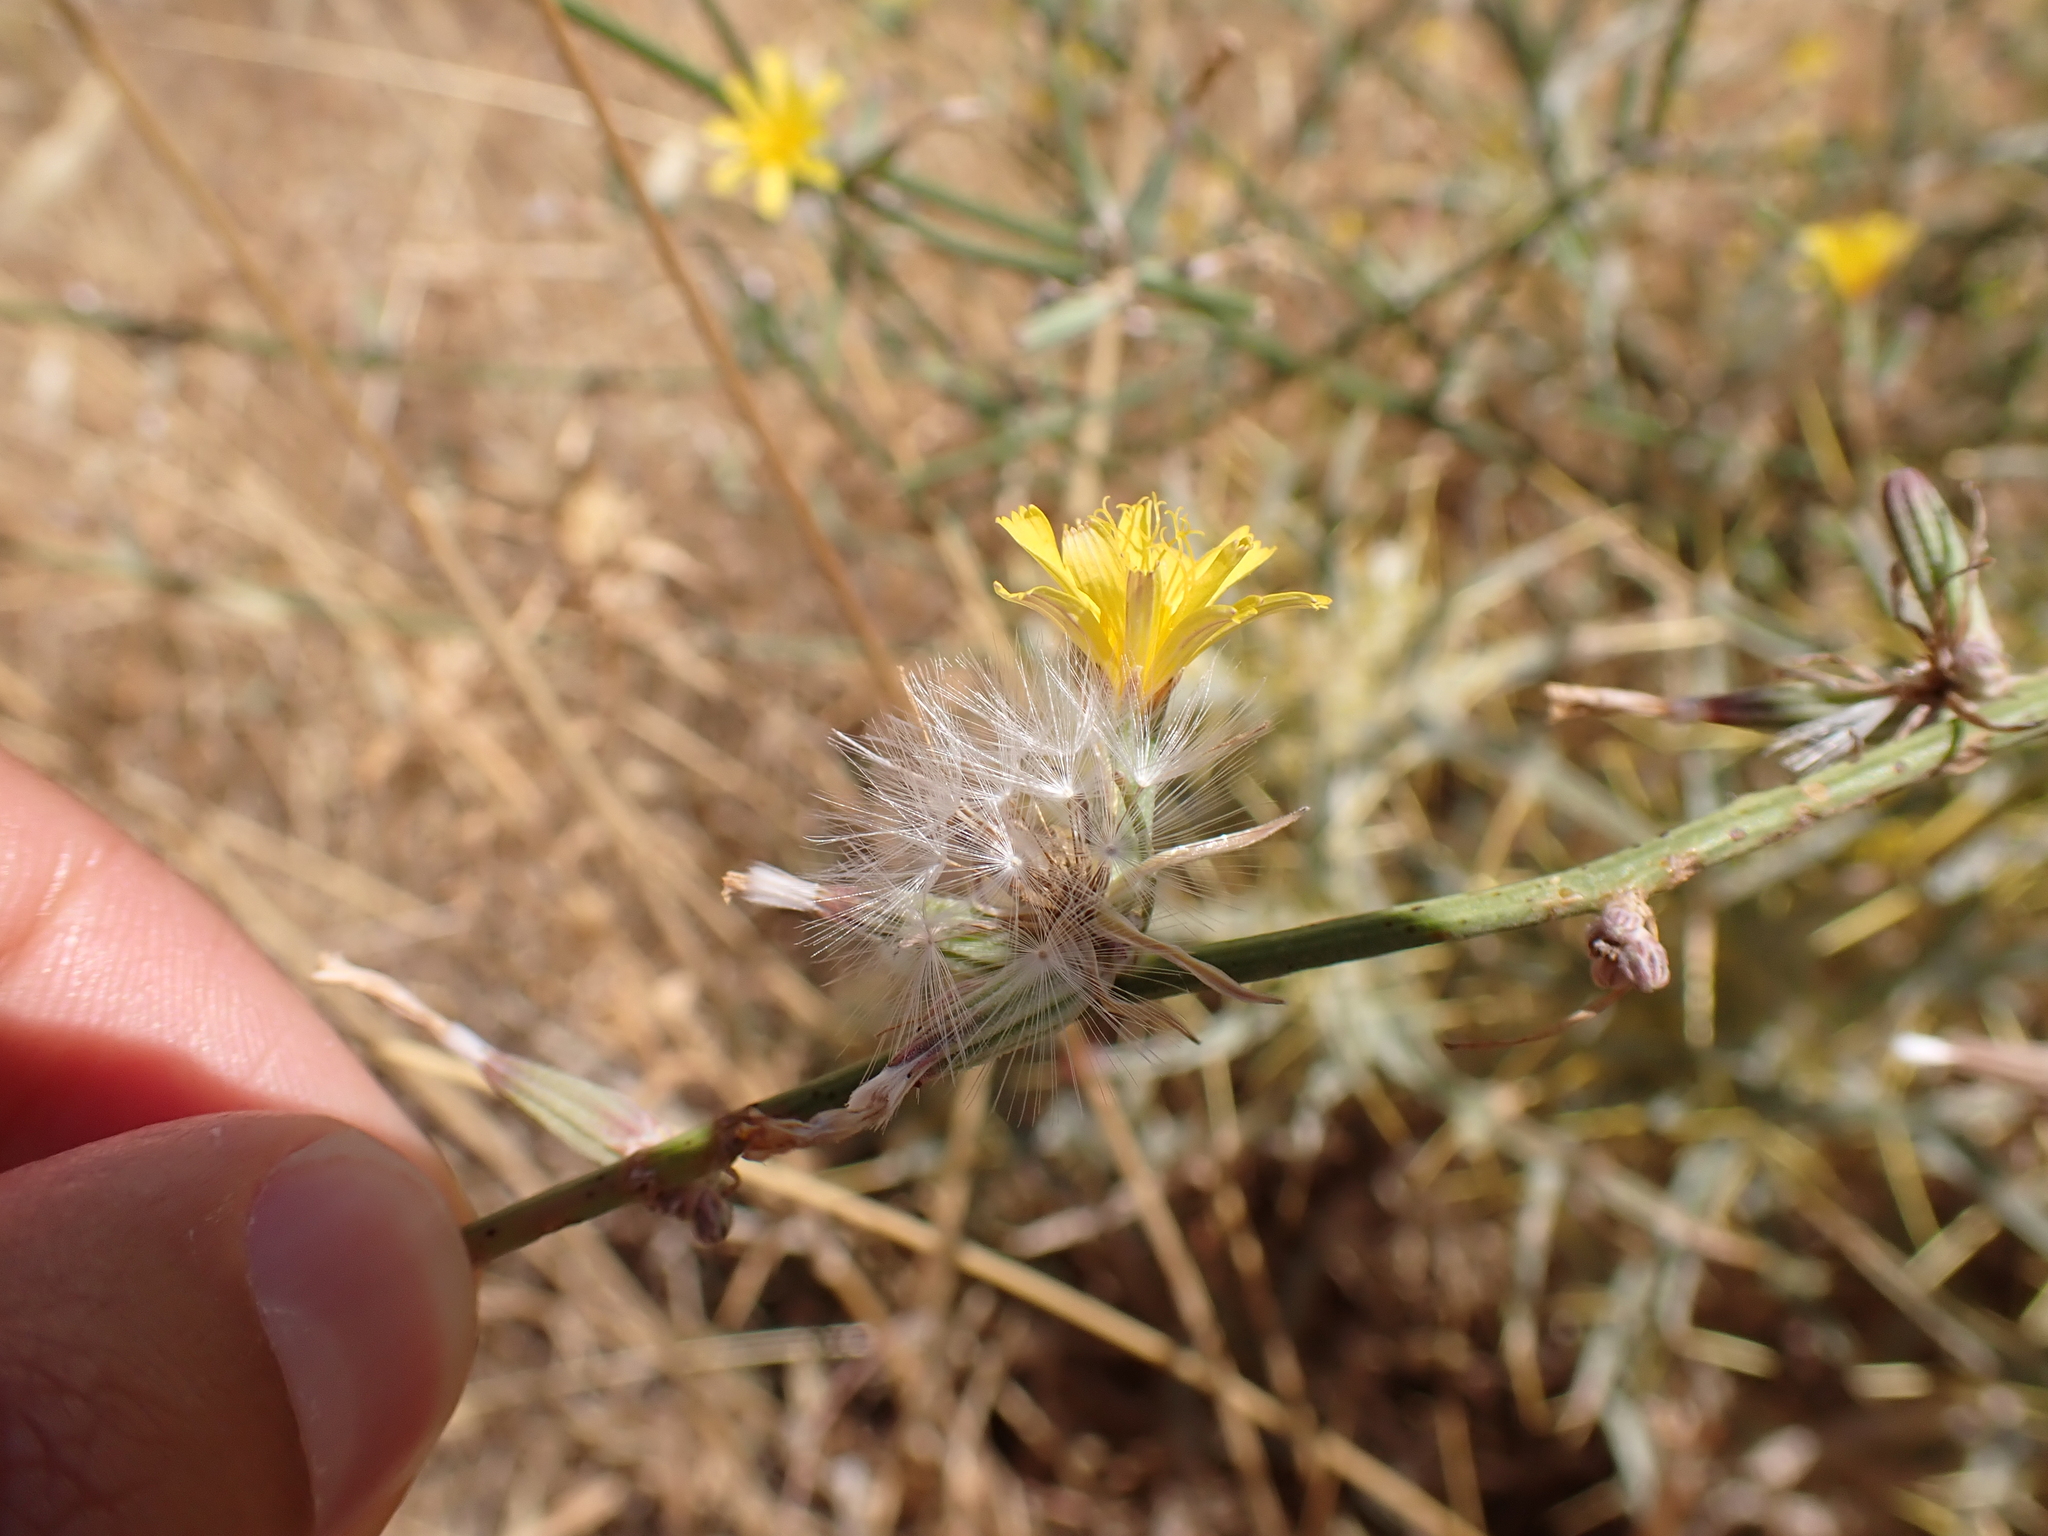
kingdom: Plantae
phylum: Tracheophyta
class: Magnoliopsida
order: Asterales
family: Asteraceae
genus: Chondrilla
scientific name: Chondrilla juncea
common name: Skeleton weed
